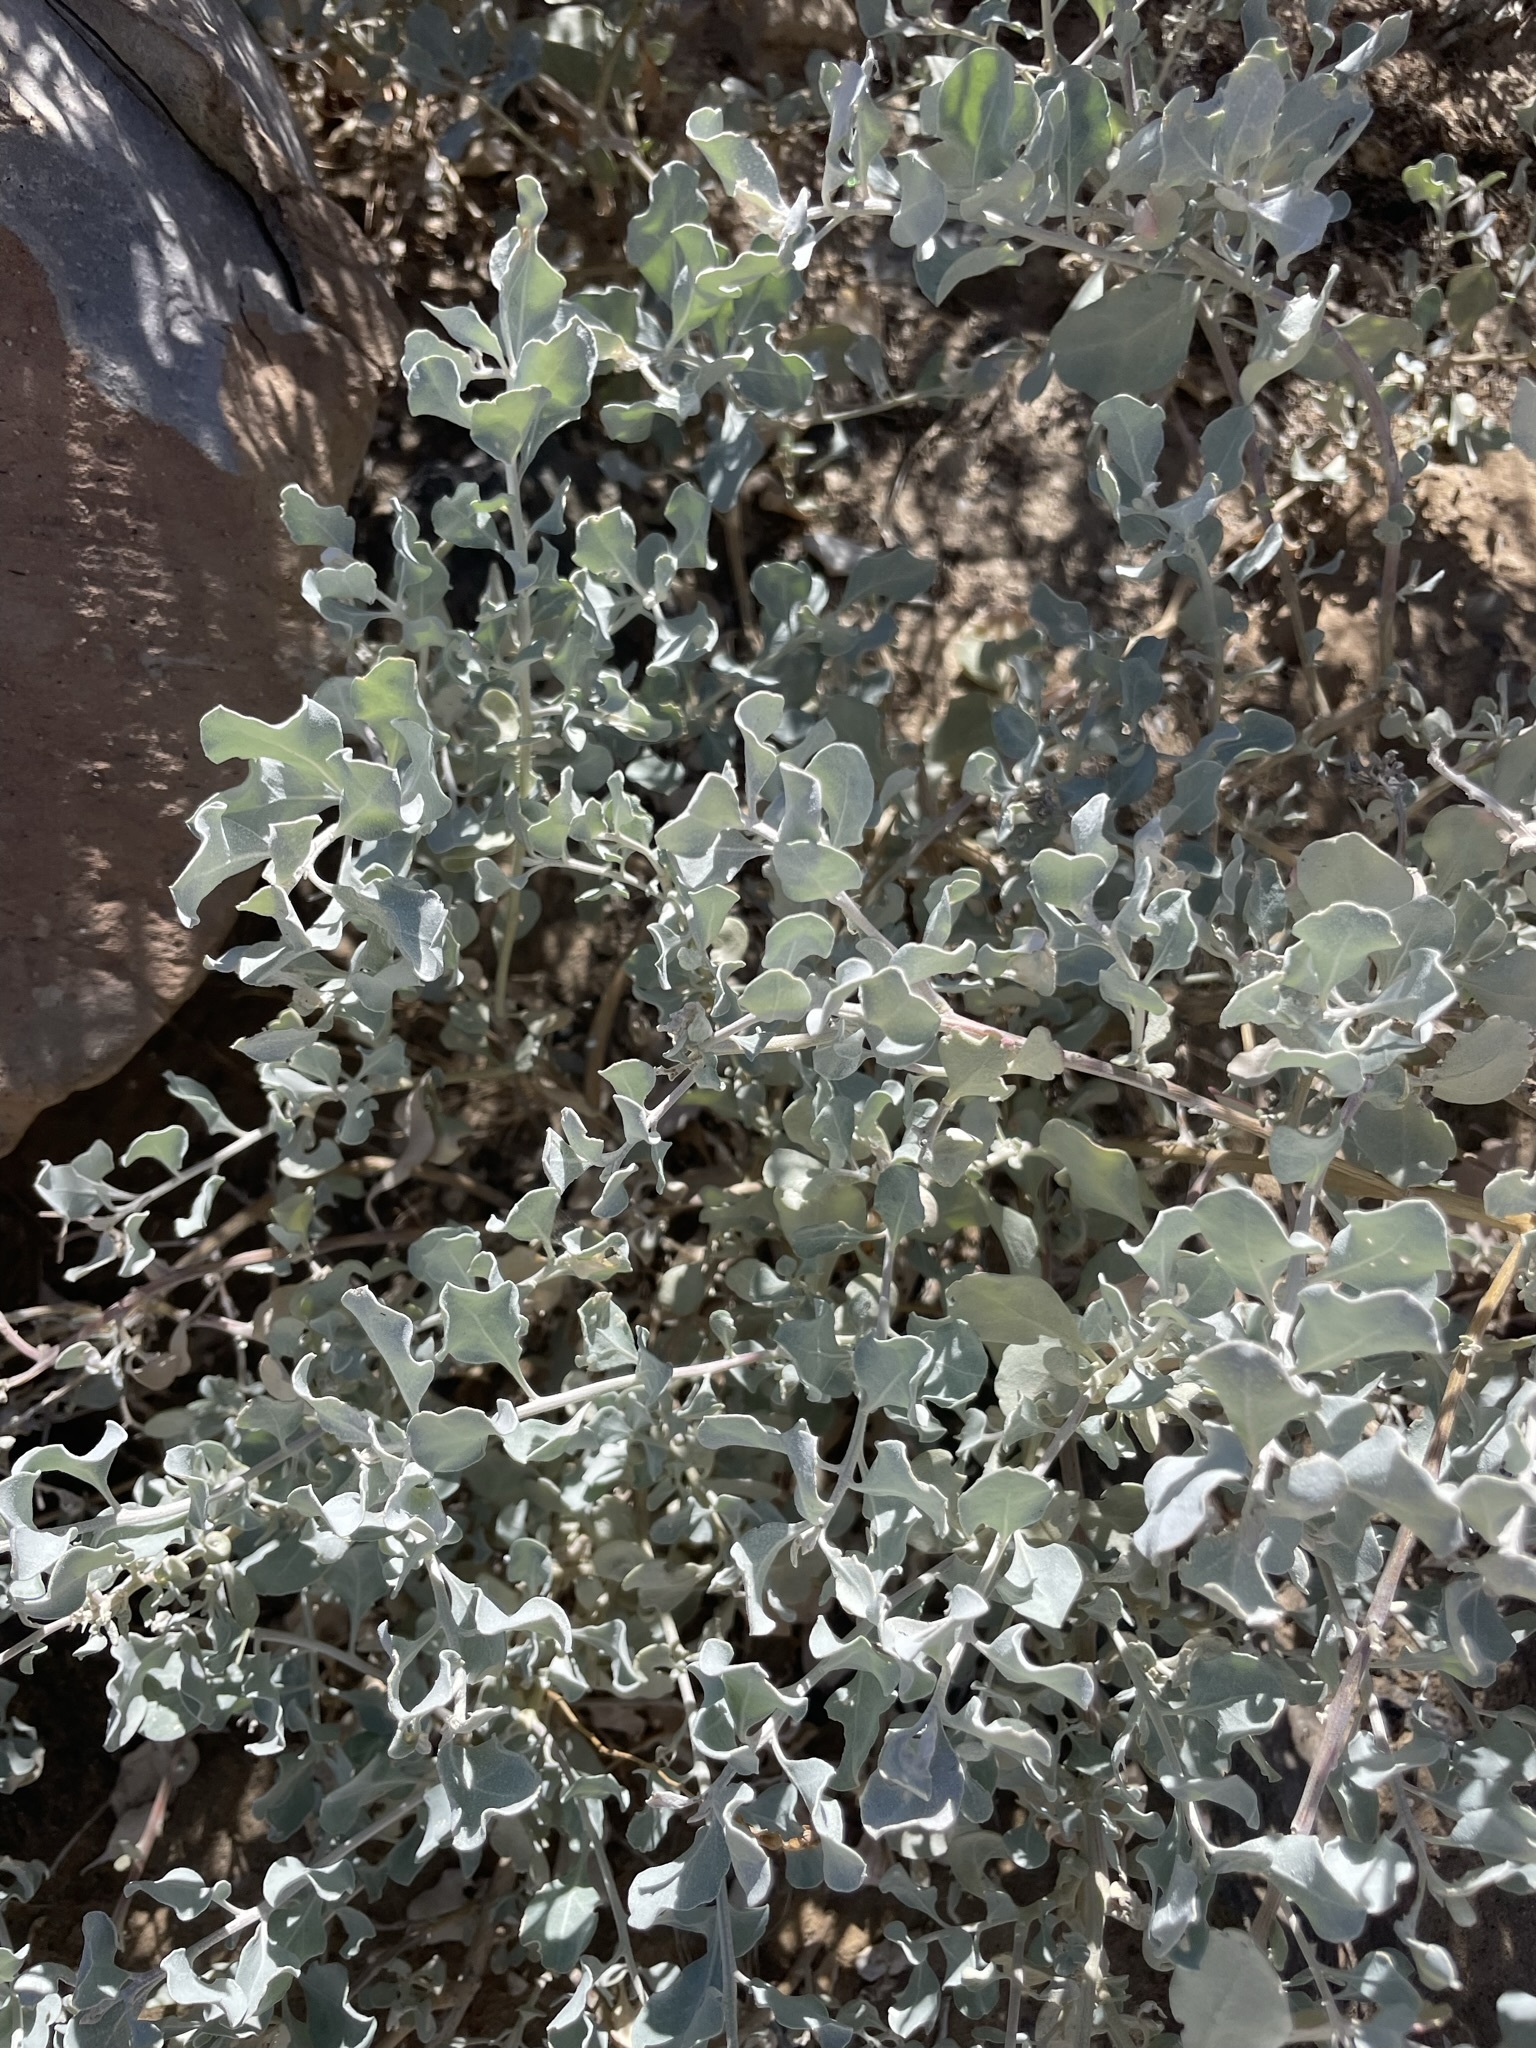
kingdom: Plantae
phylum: Tracheophyta
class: Magnoliopsida
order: Caryophyllales
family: Amaranthaceae
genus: Atriplex
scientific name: Atriplex barclayana
